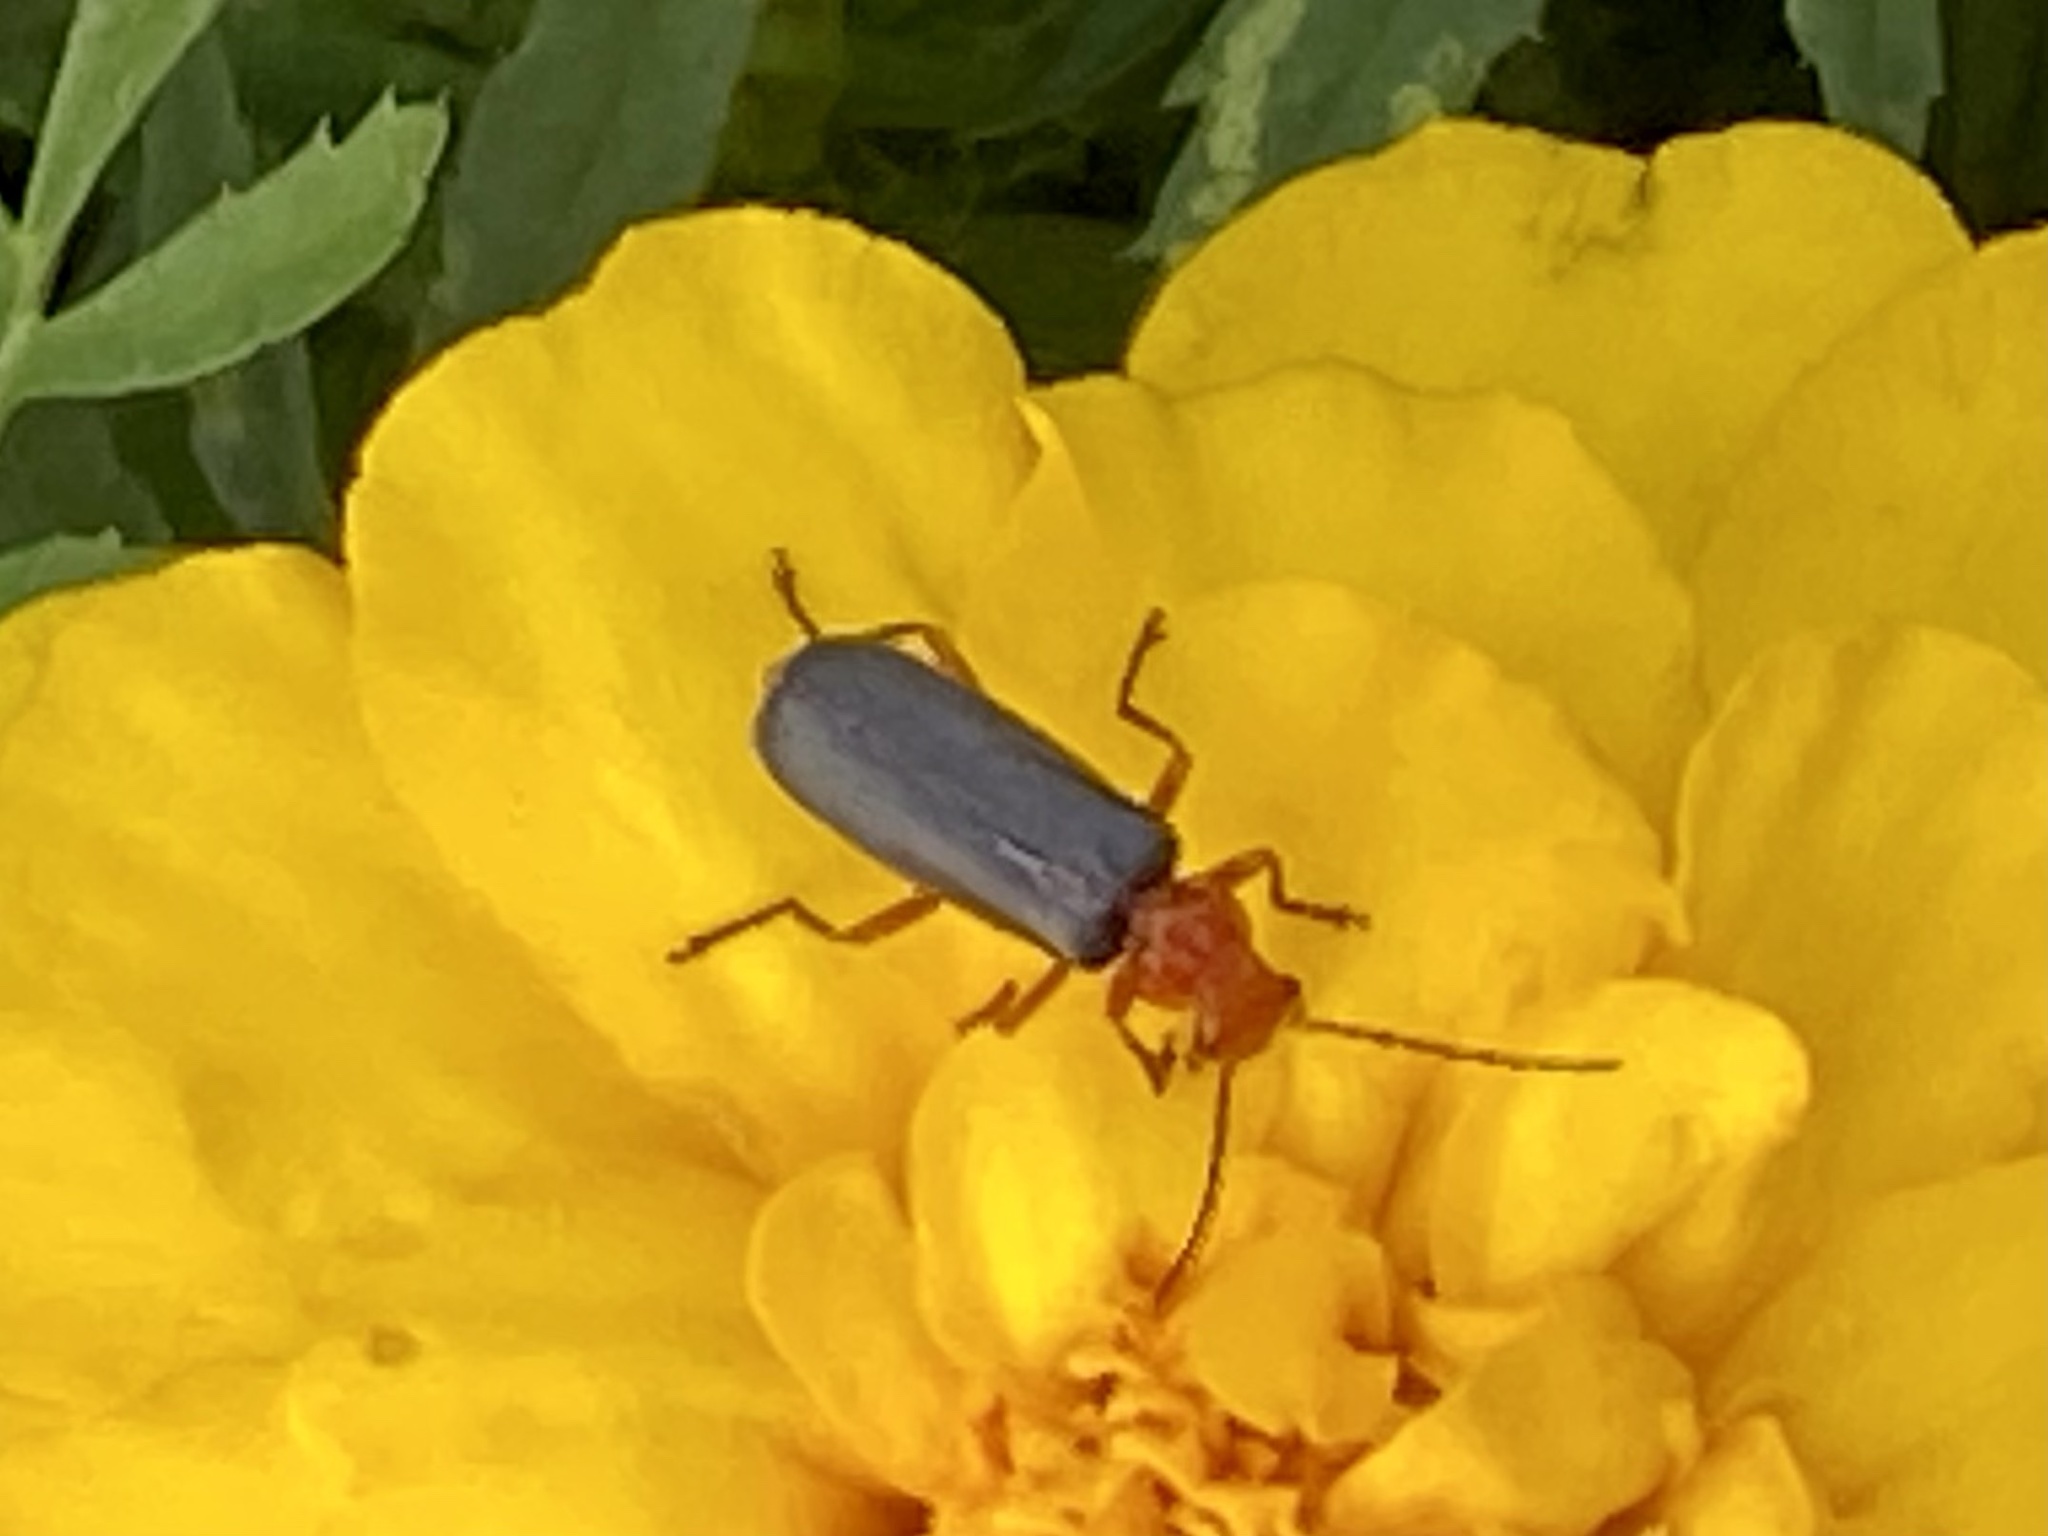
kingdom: Animalia
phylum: Arthropoda
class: Insecta
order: Coleoptera
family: Cantharidae
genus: Podabrus
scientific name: Podabrus tomentosus
